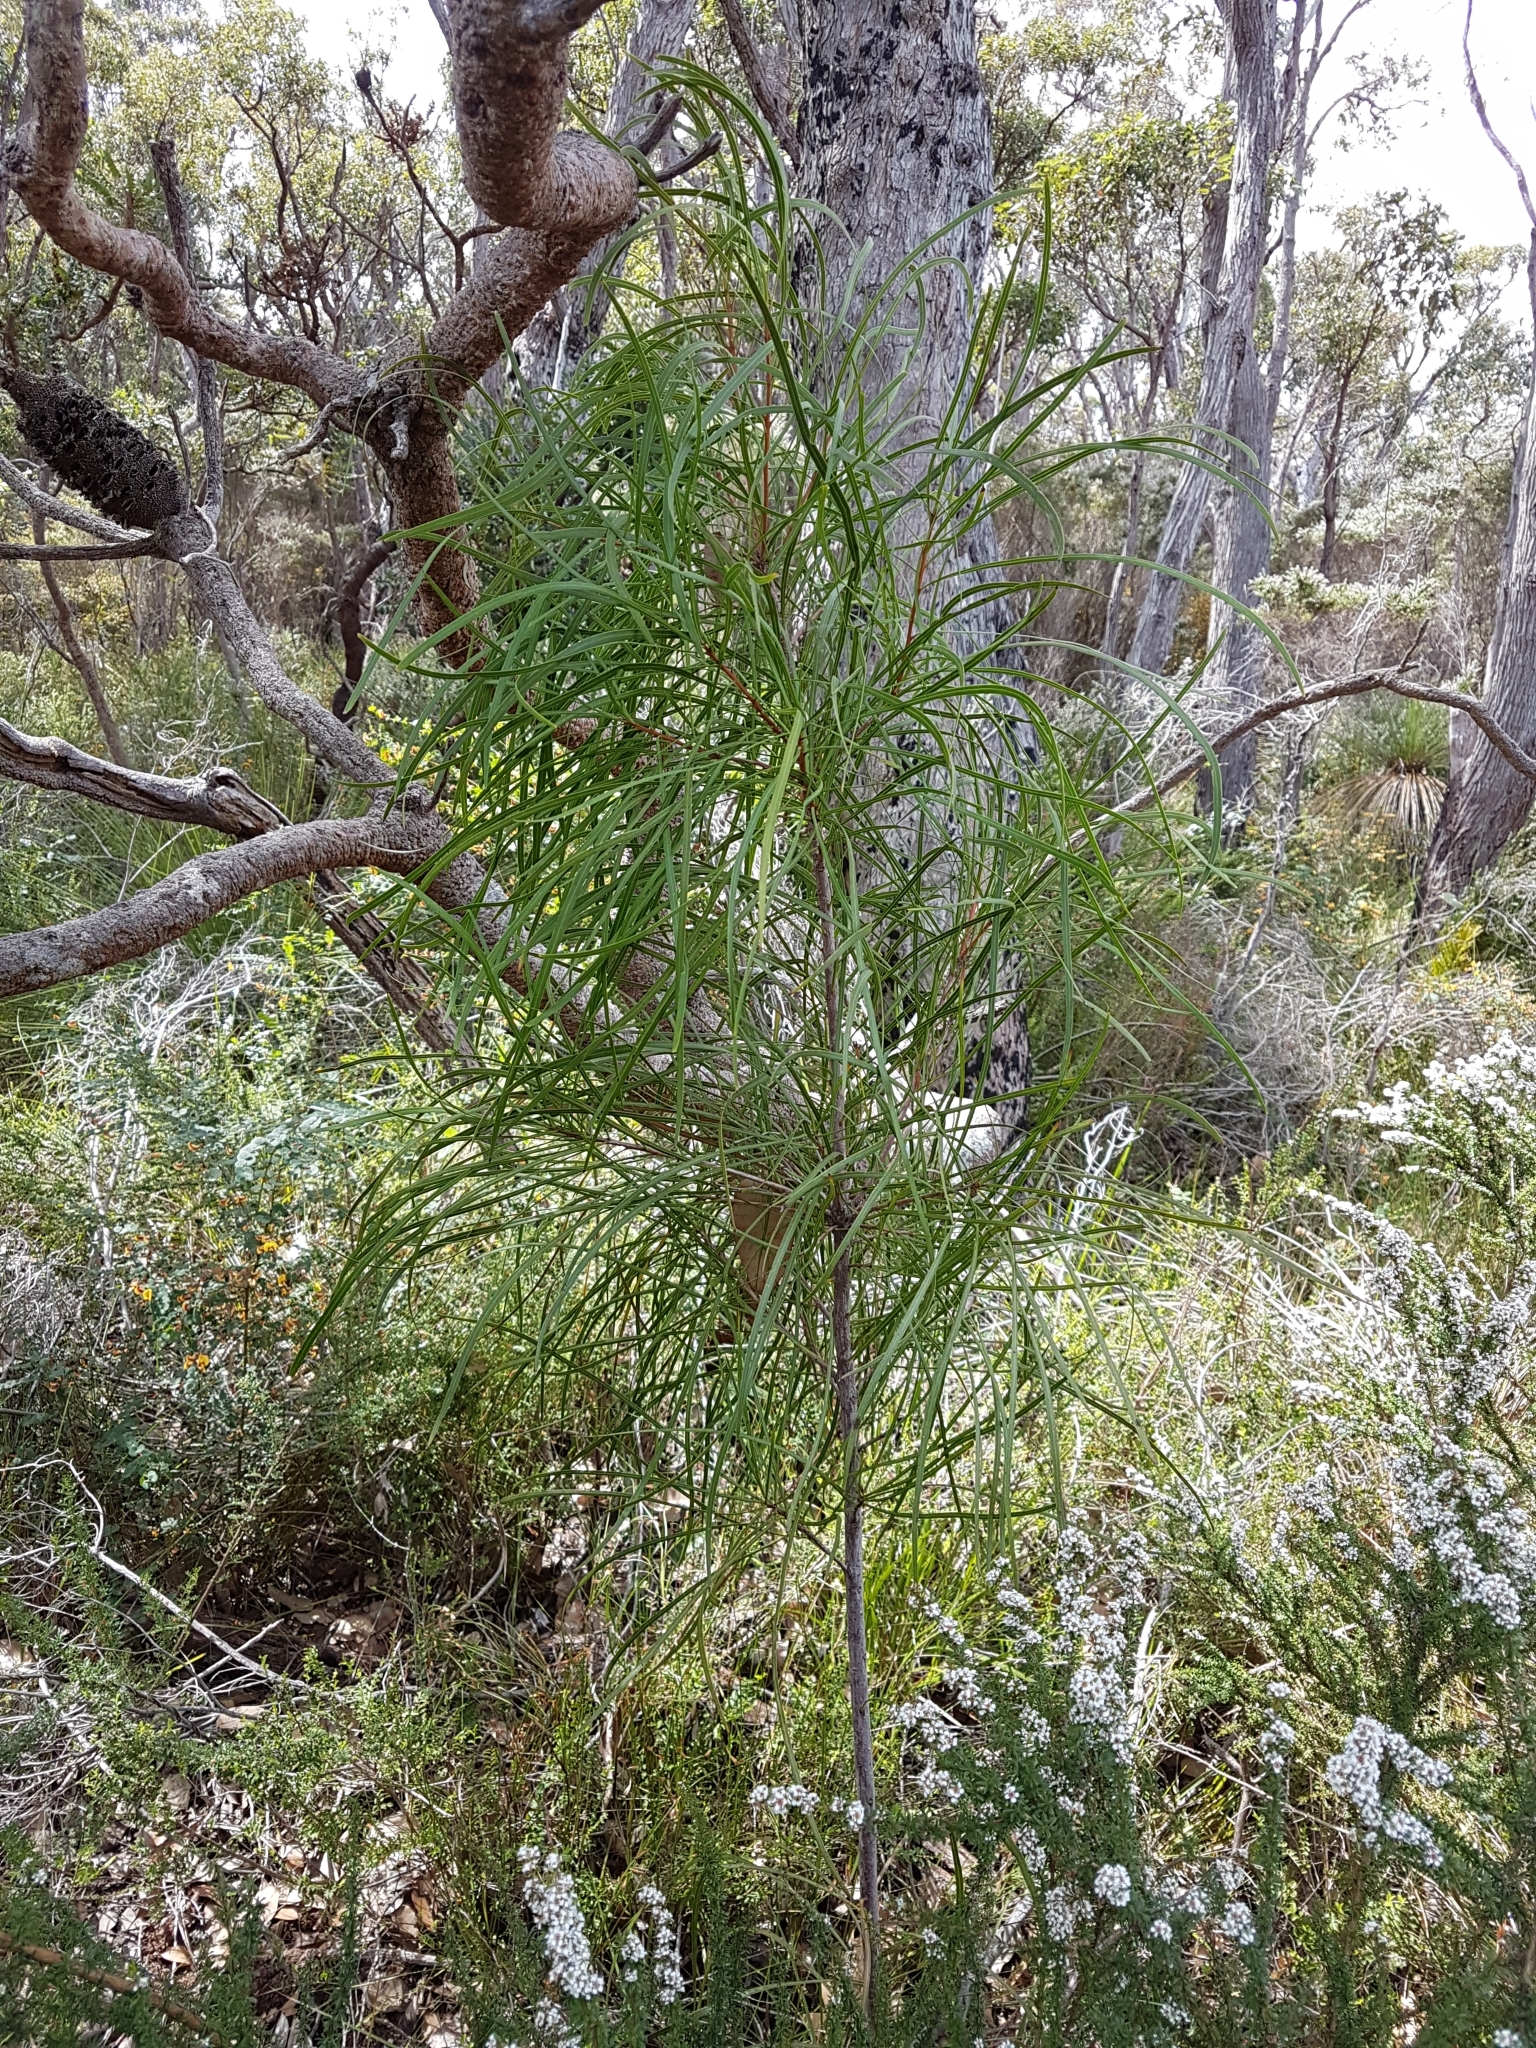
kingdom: Plantae
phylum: Tracheophyta
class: Magnoliopsida
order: Proteales
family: Proteaceae
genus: Persoonia
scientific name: Persoonia longifolia
